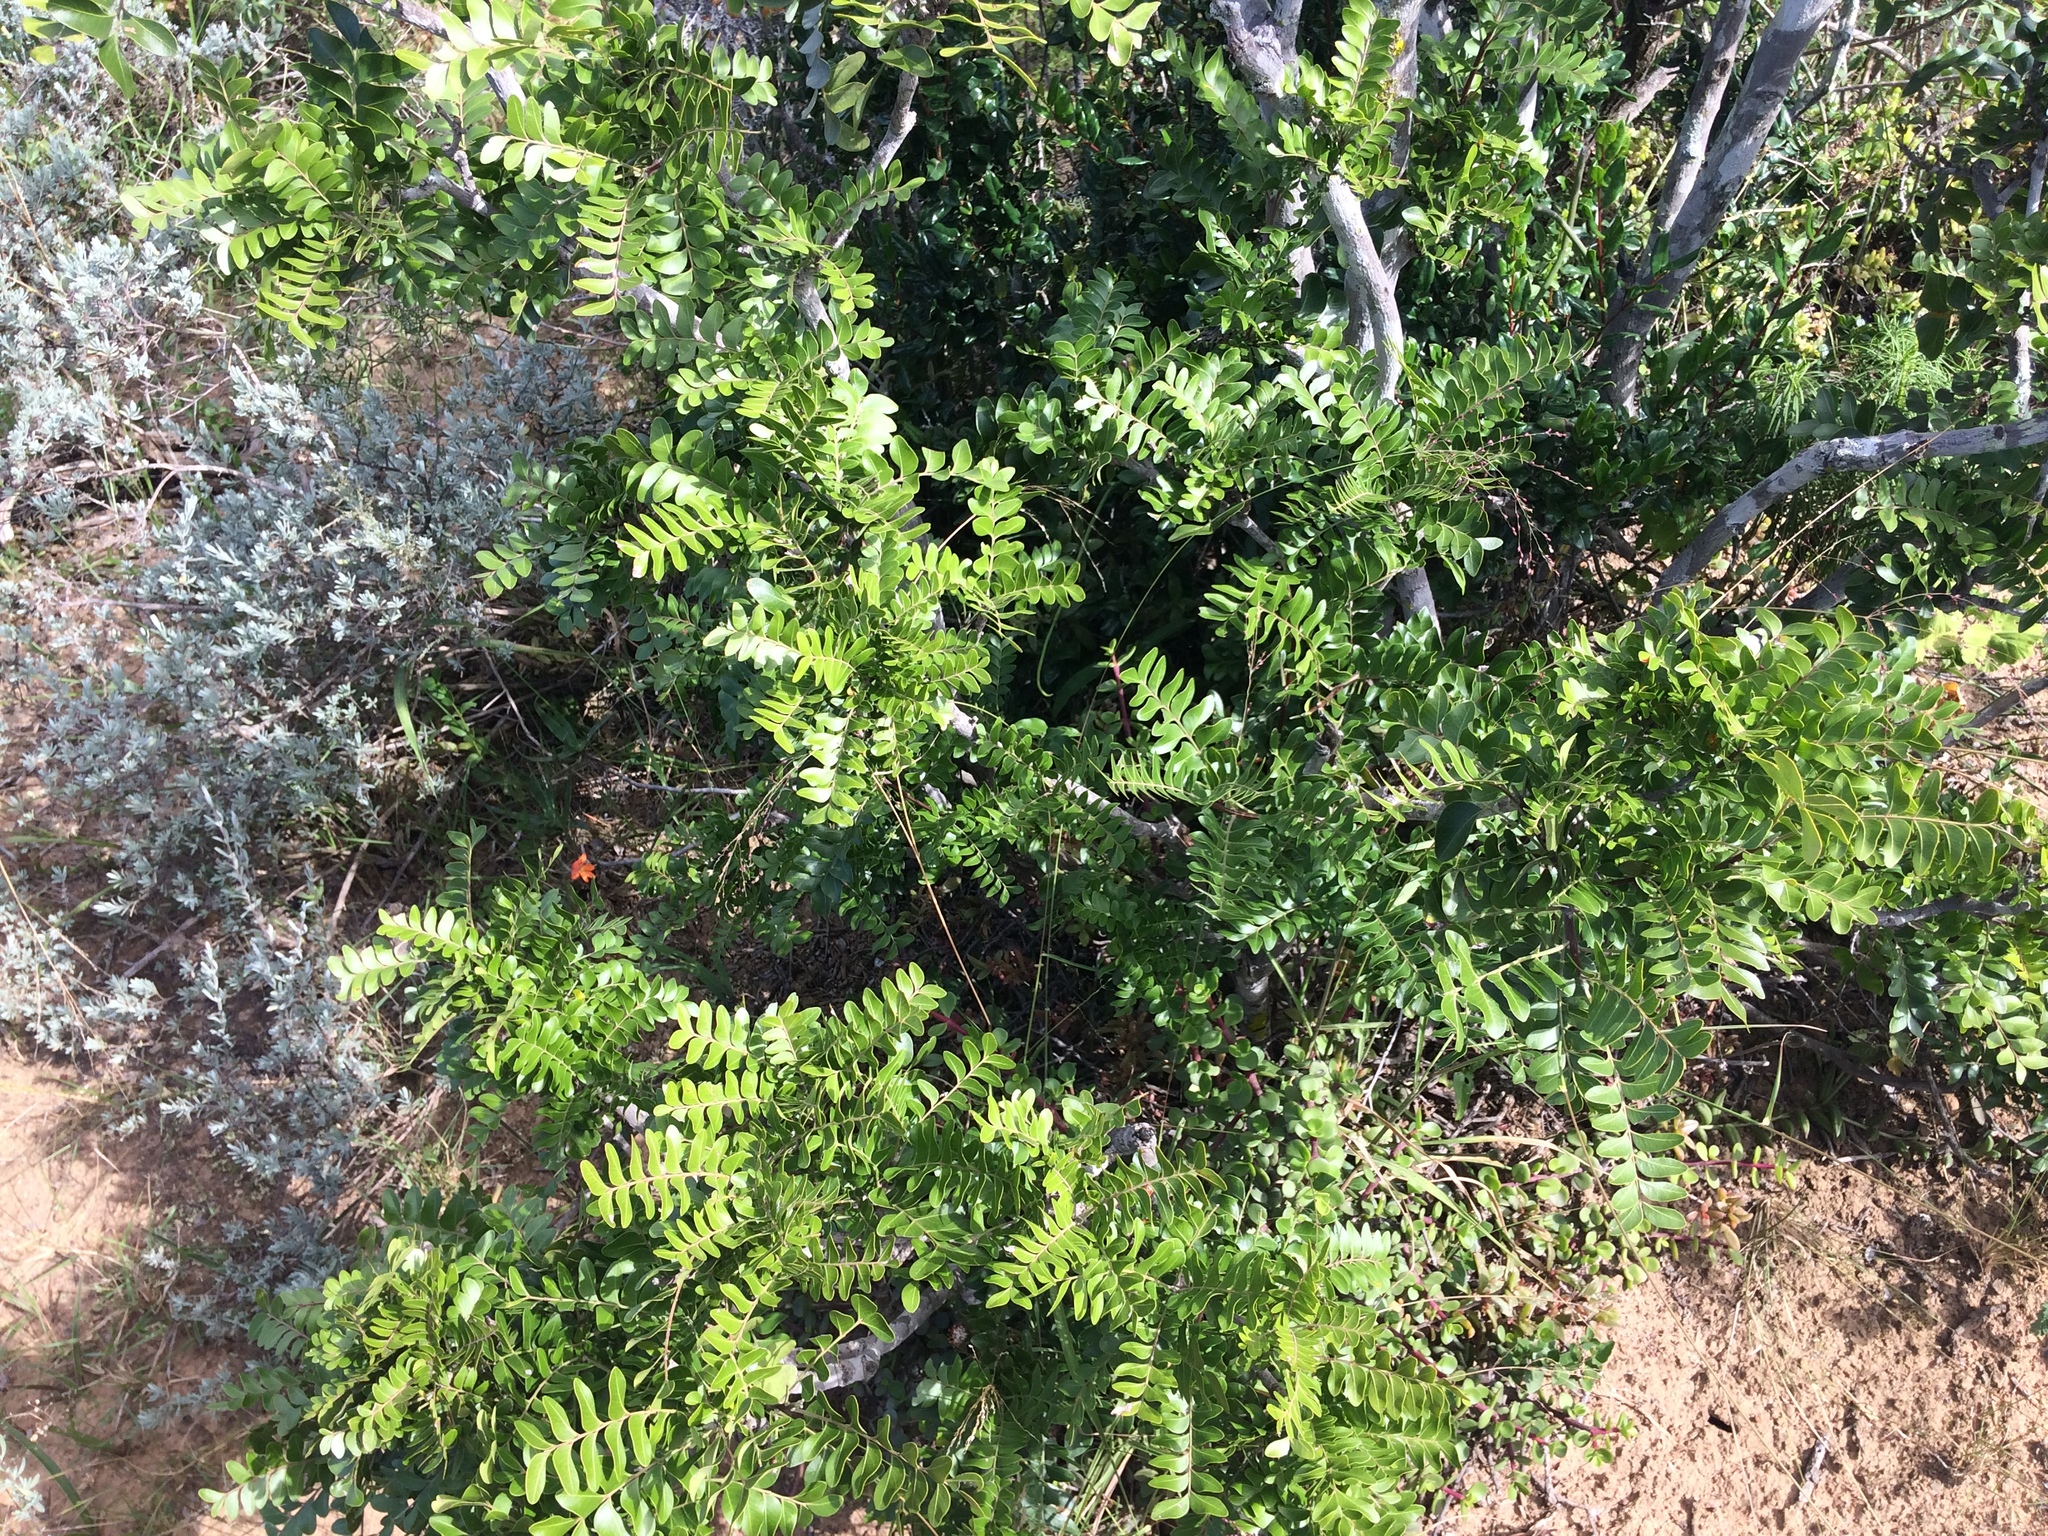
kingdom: Plantae
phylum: Tracheophyta
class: Magnoliopsida
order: Sapindales
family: Rutaceae
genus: Ptaeroxylon
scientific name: Ptaeroxylon obliquum
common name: Sneezewood
